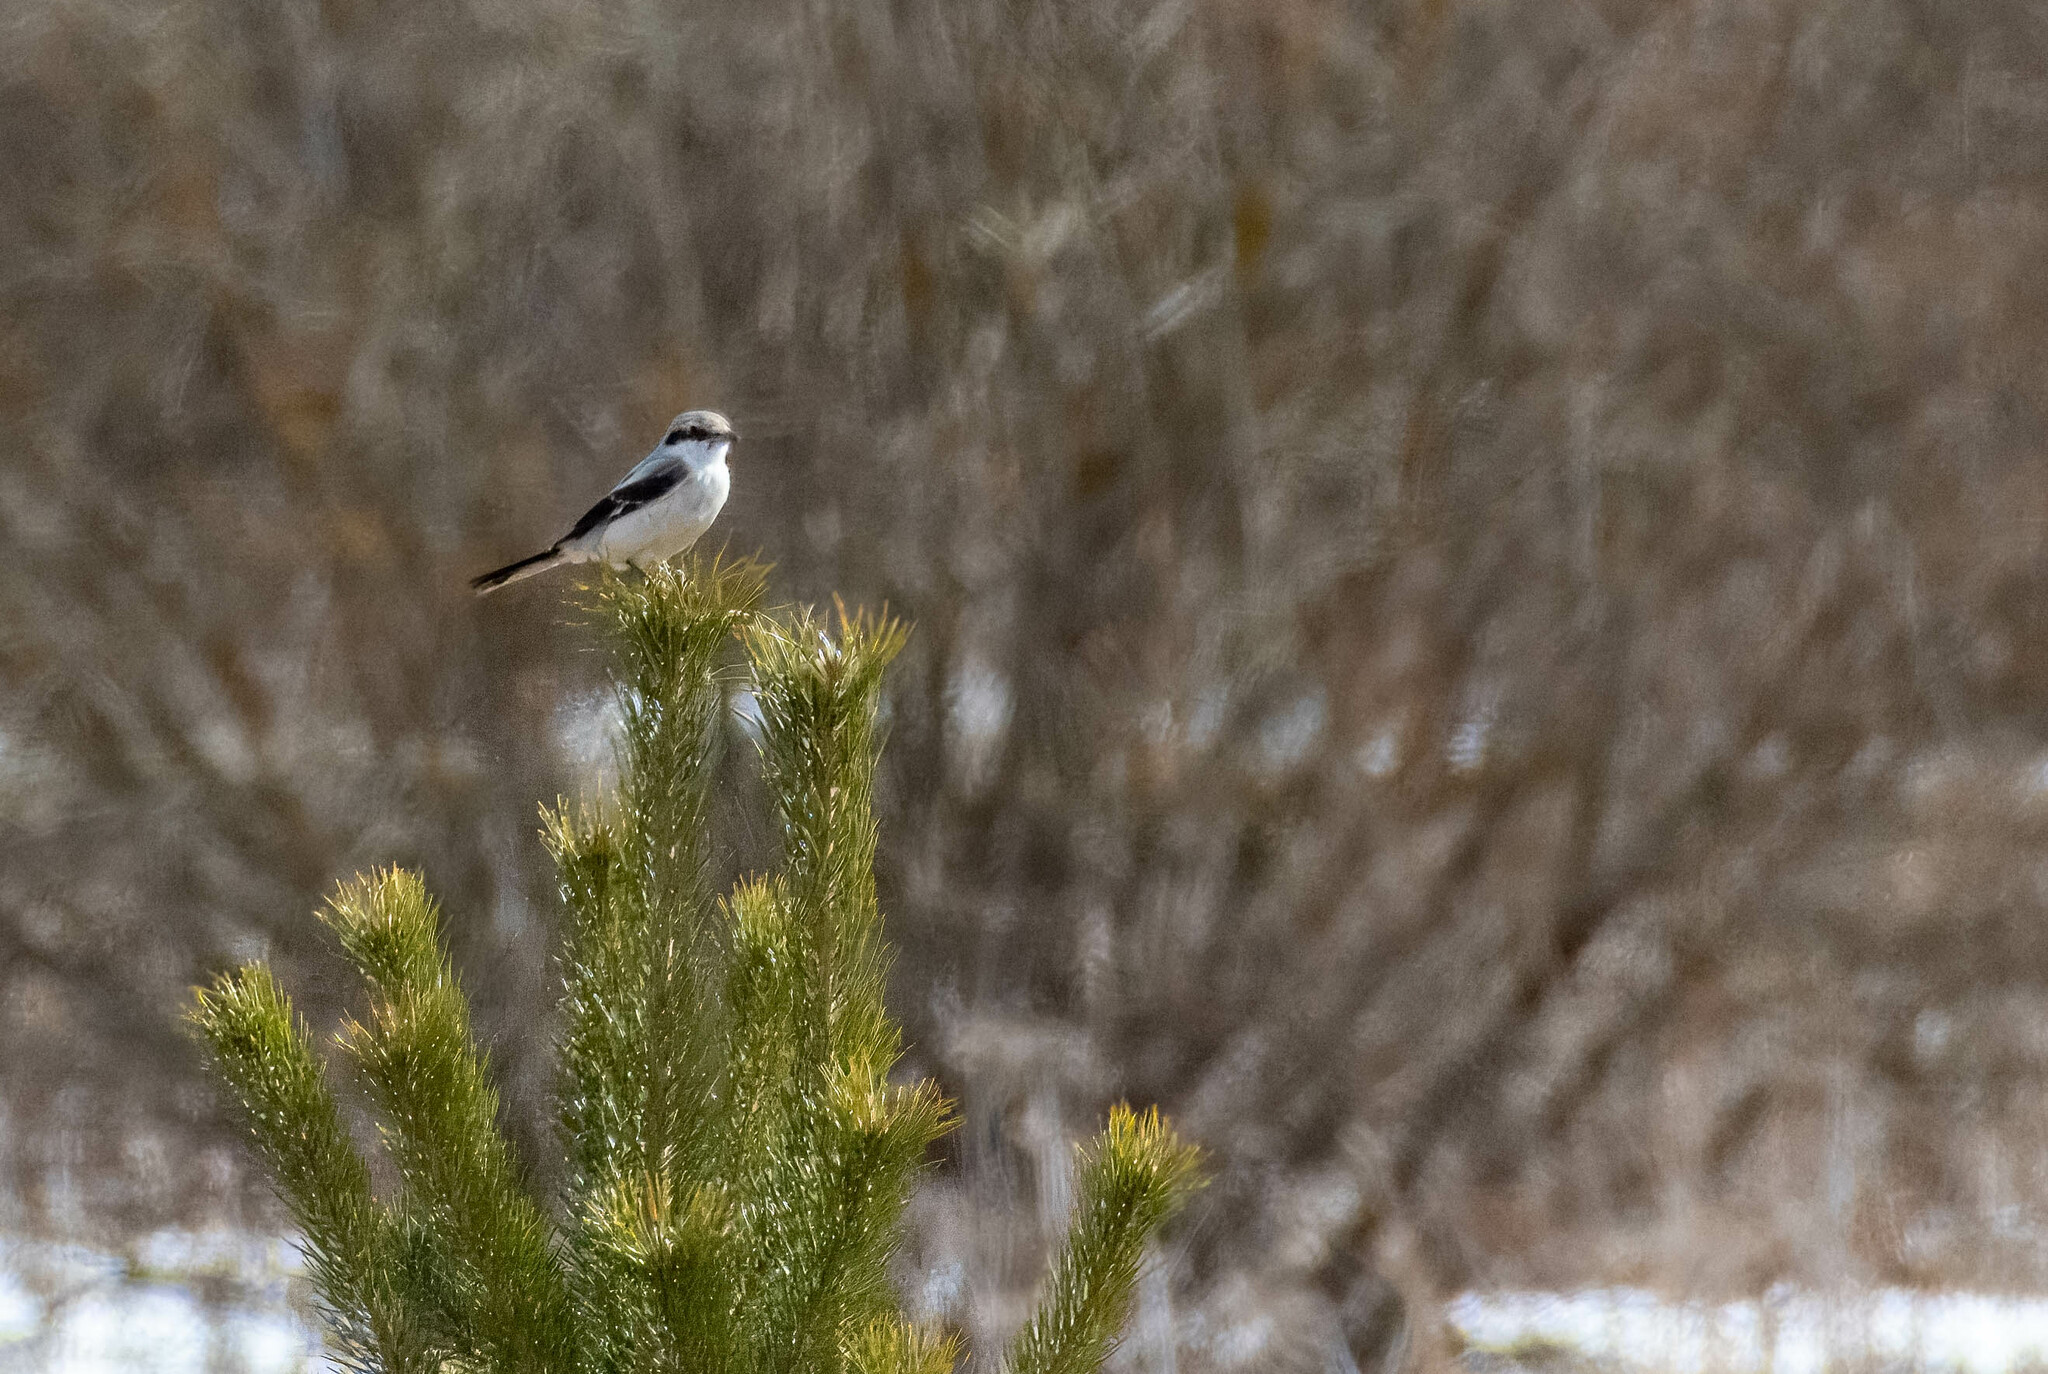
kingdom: Animalia
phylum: Chordata
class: Aves
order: Passeriformes
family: Laniidae
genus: Lanius
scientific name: Lanius excubitor
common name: Great grey shrike
